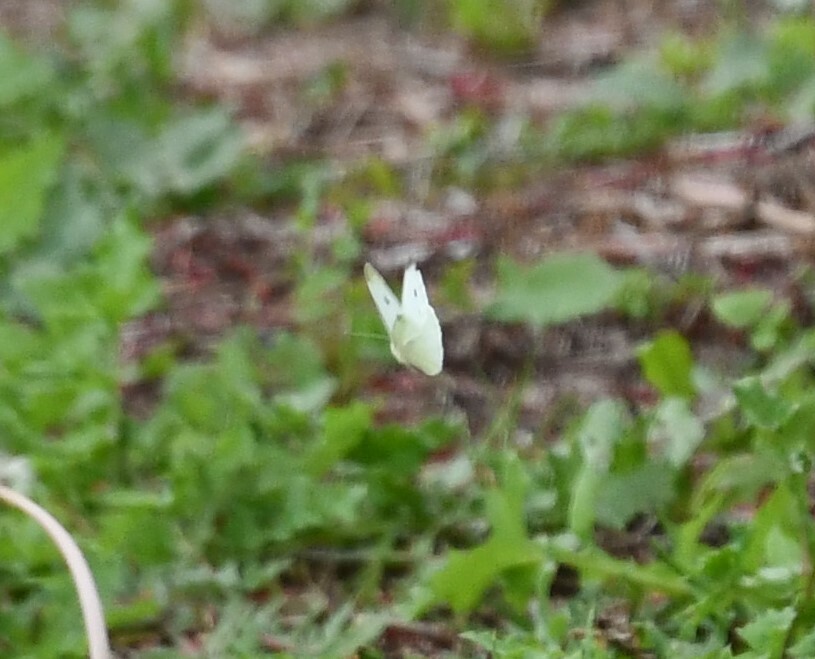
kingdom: Animalia
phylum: Arthropoda
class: Insecta
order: Lepidoptera
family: Pieridae
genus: Pieris
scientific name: Pieris rapae
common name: Small white
